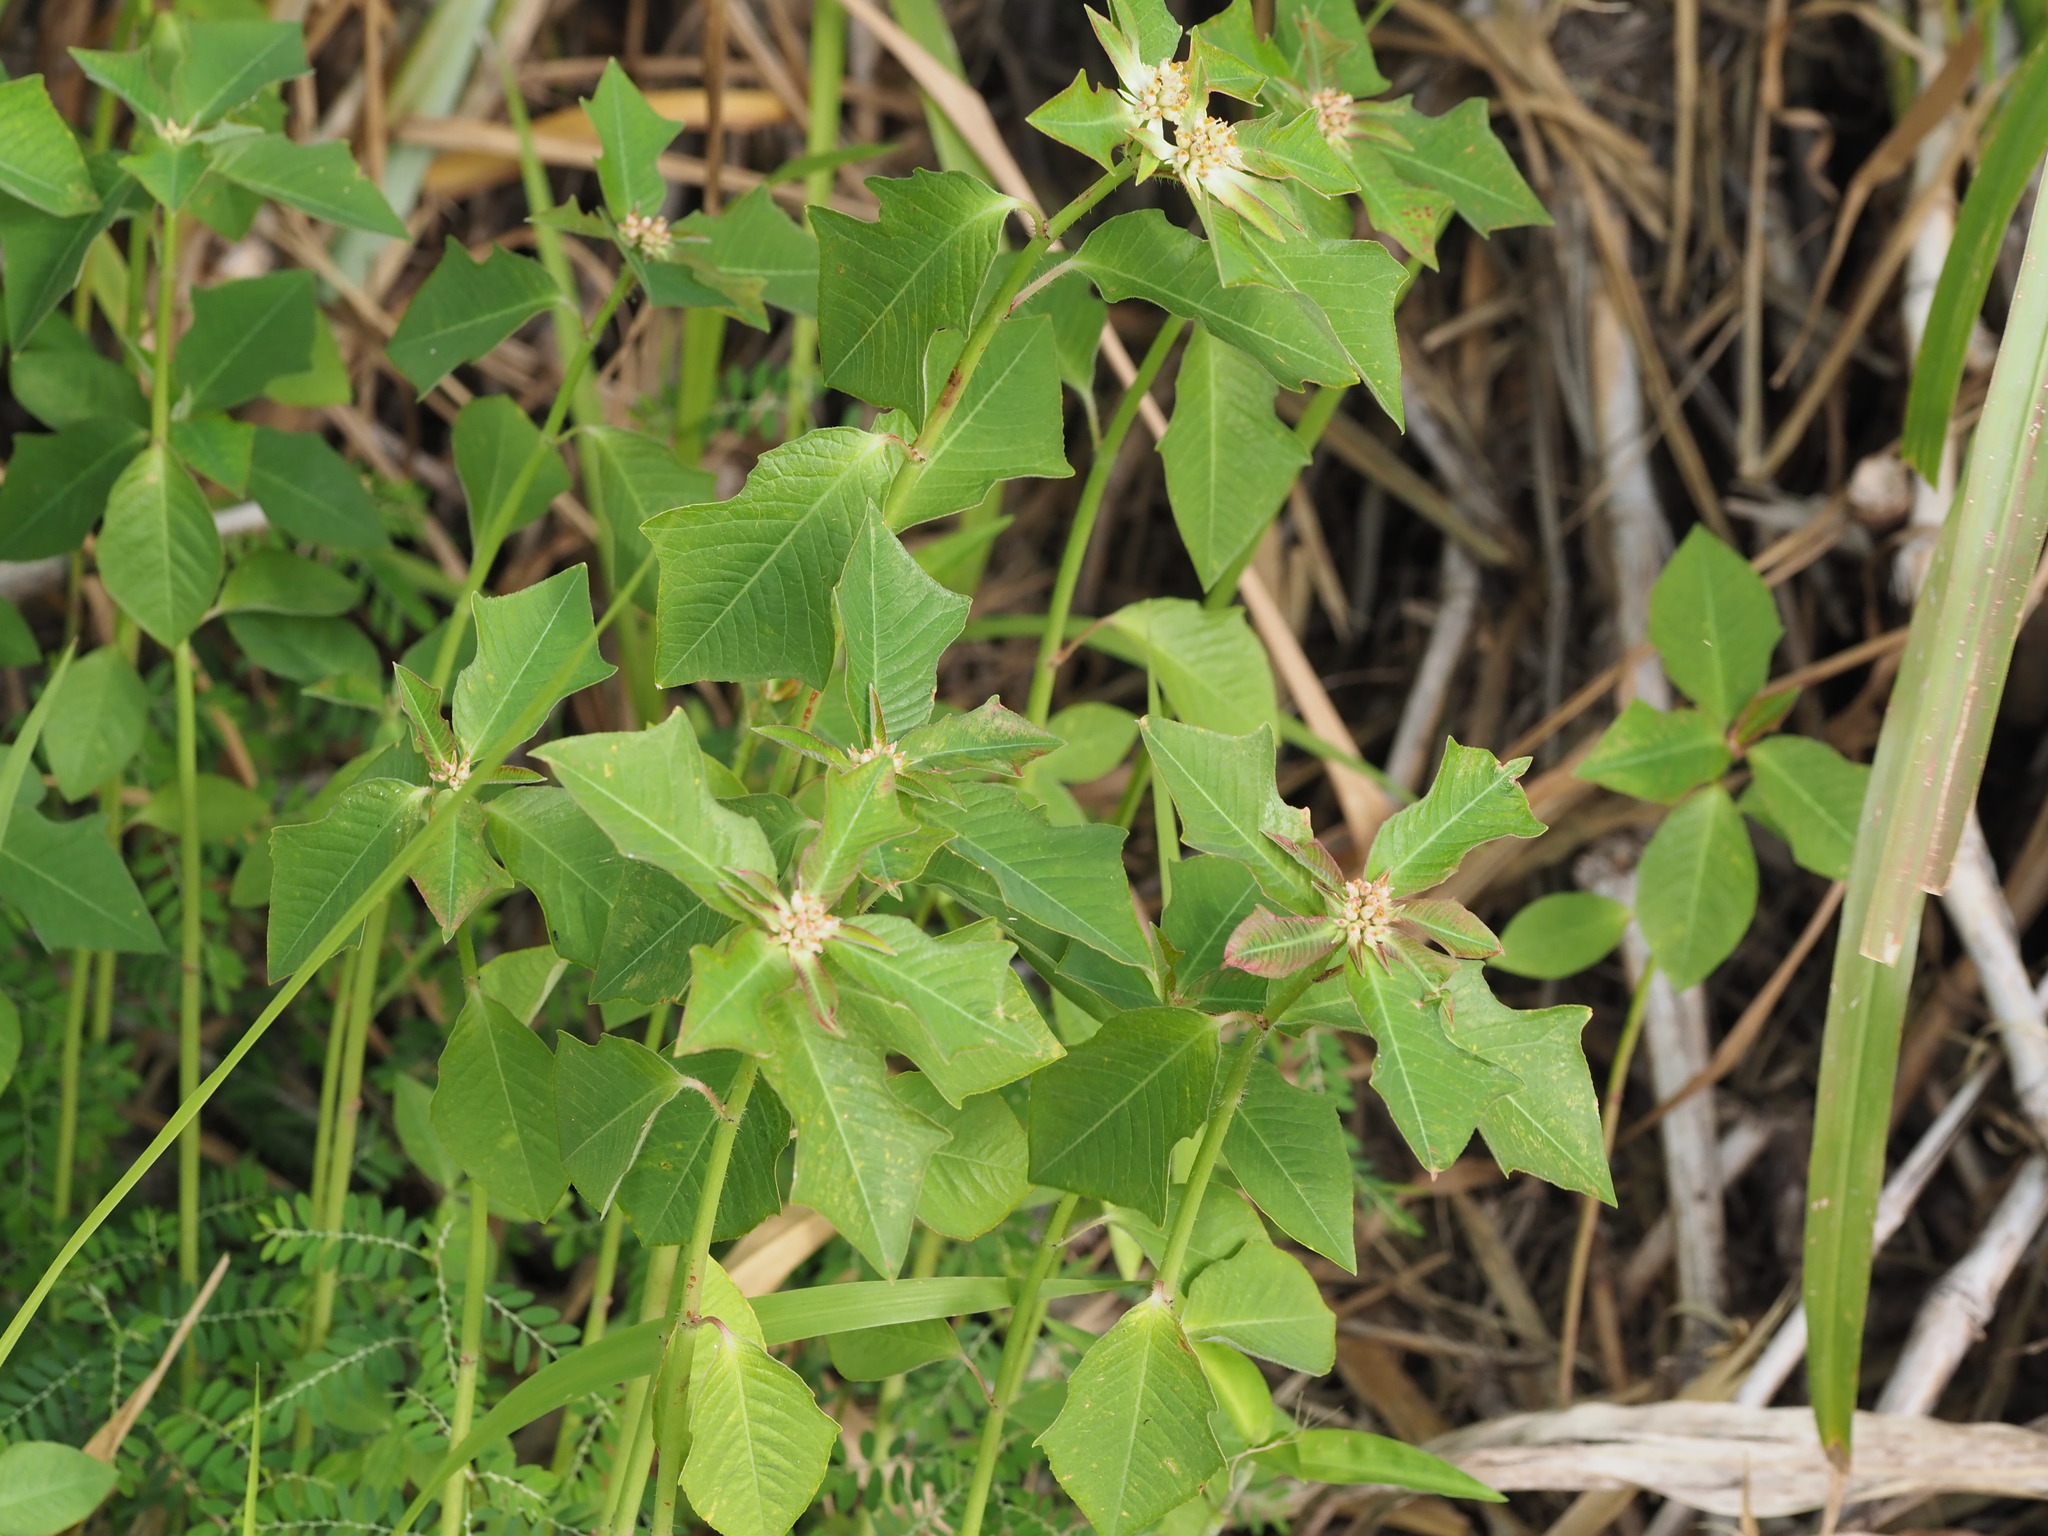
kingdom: Plantae
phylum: Tracheophyta
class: Magnoliopsida
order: Malpighiales
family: Euphorbiaceae
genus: Euphorbia
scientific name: Euphorbia heterophylla
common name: Mexican fireplant
